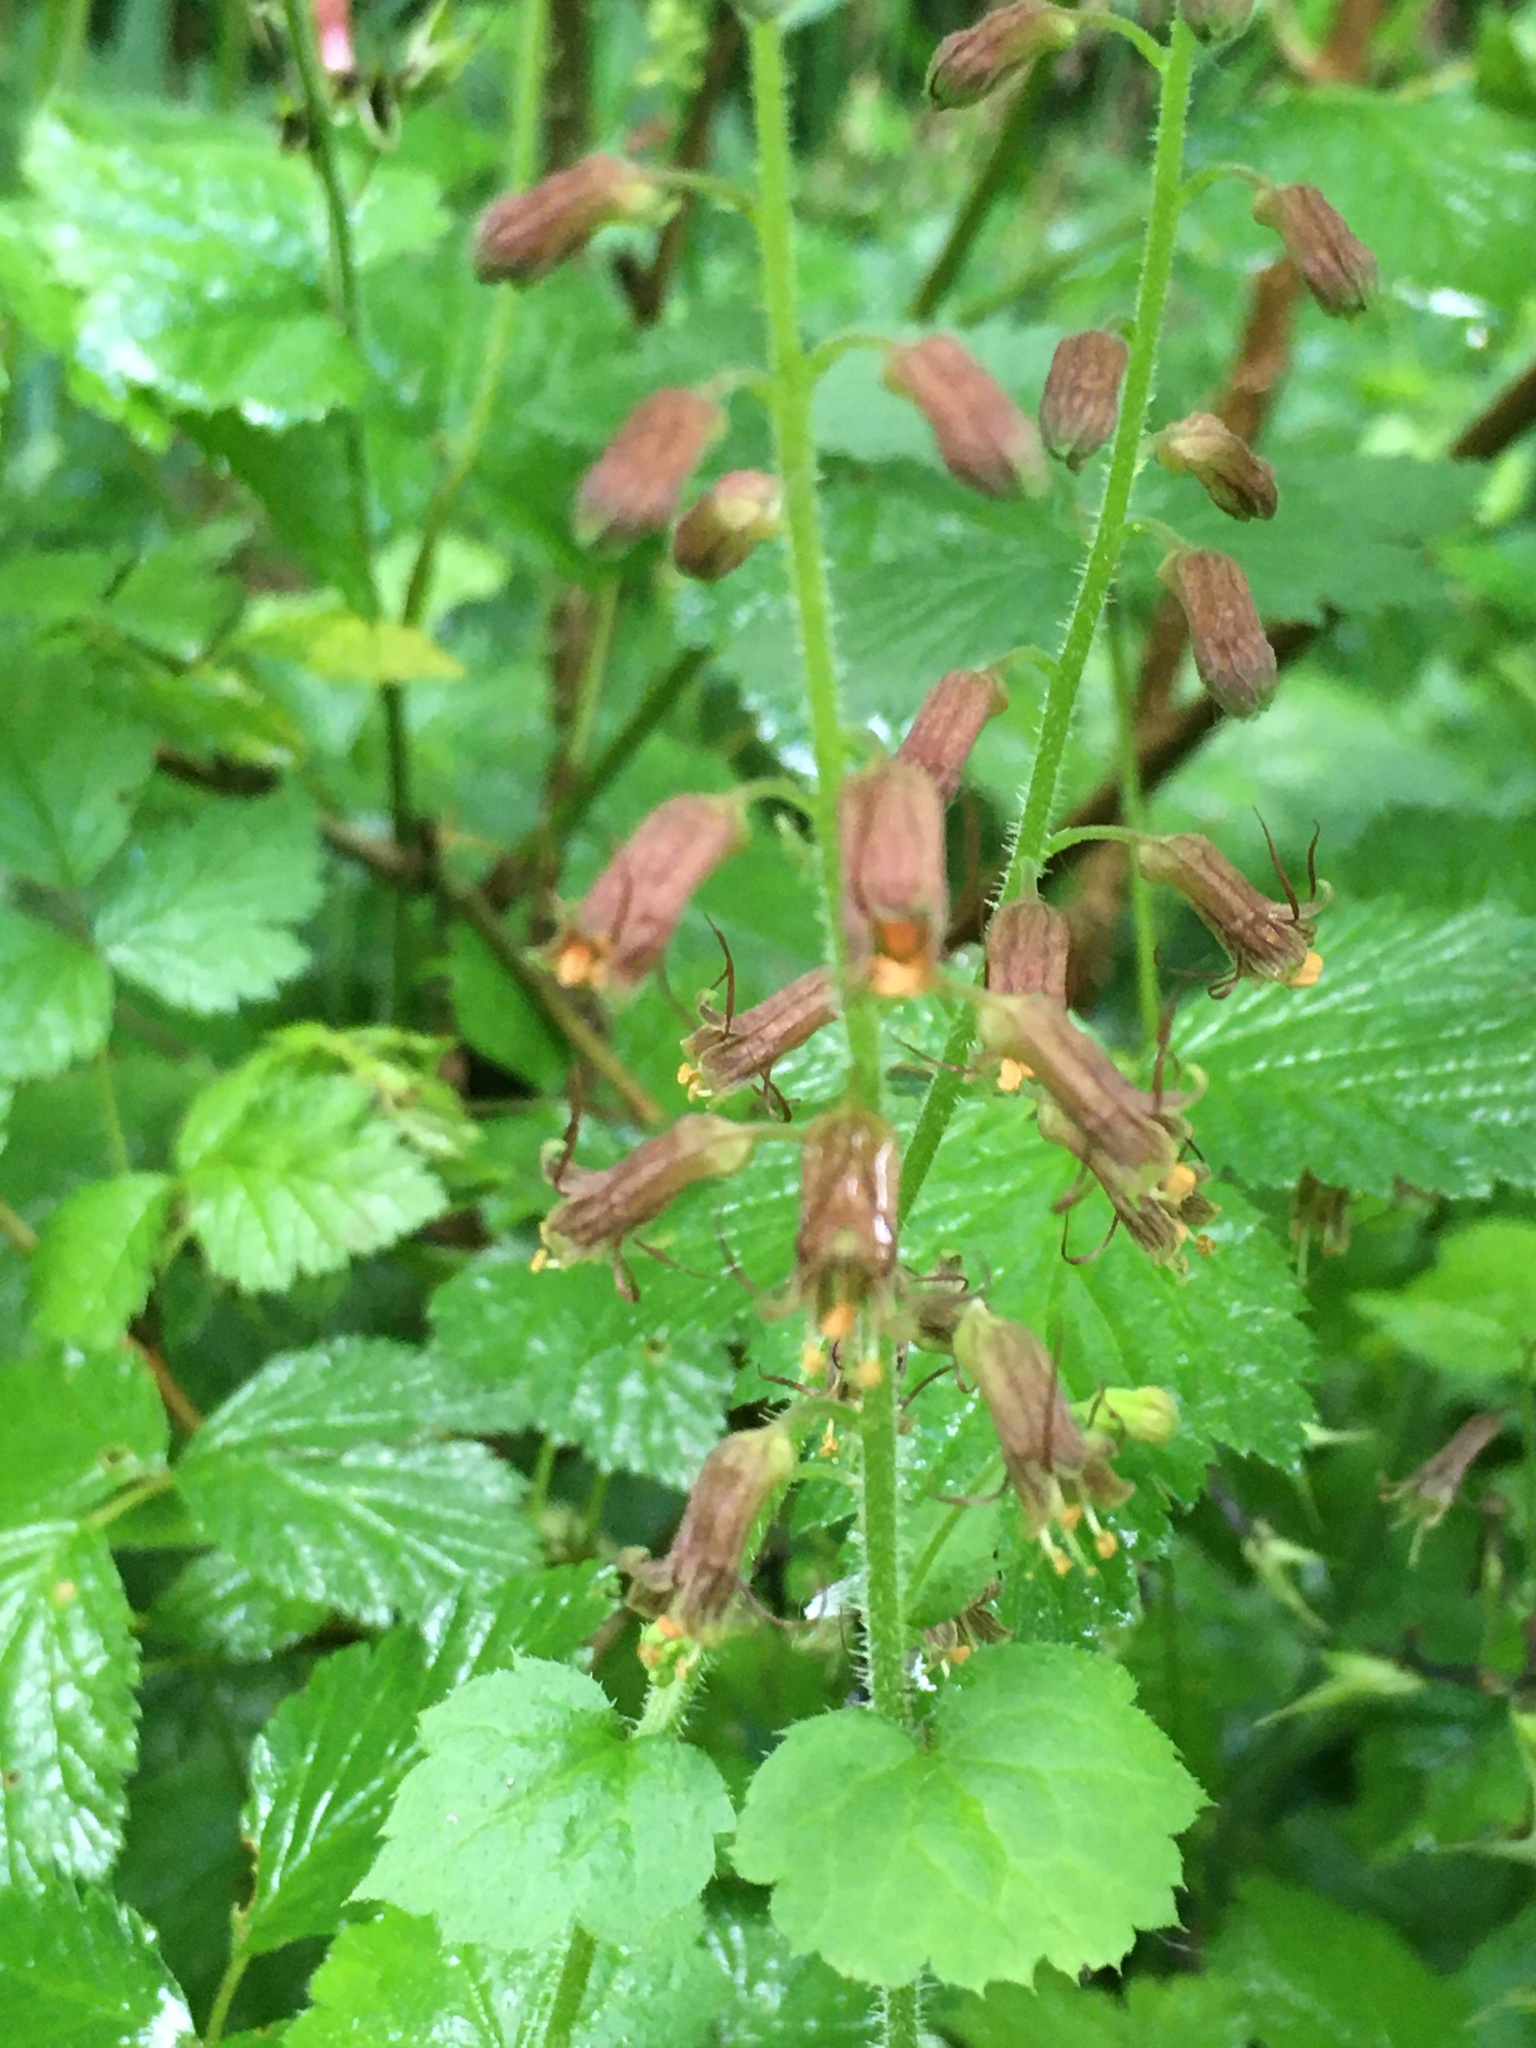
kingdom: Plantae
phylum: Tracheophyta
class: Magnoliopsida
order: Saxifragales
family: Saxifragaceae
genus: Tolmiea
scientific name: Tolmiea menziesii
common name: Pick-a-back-plant
